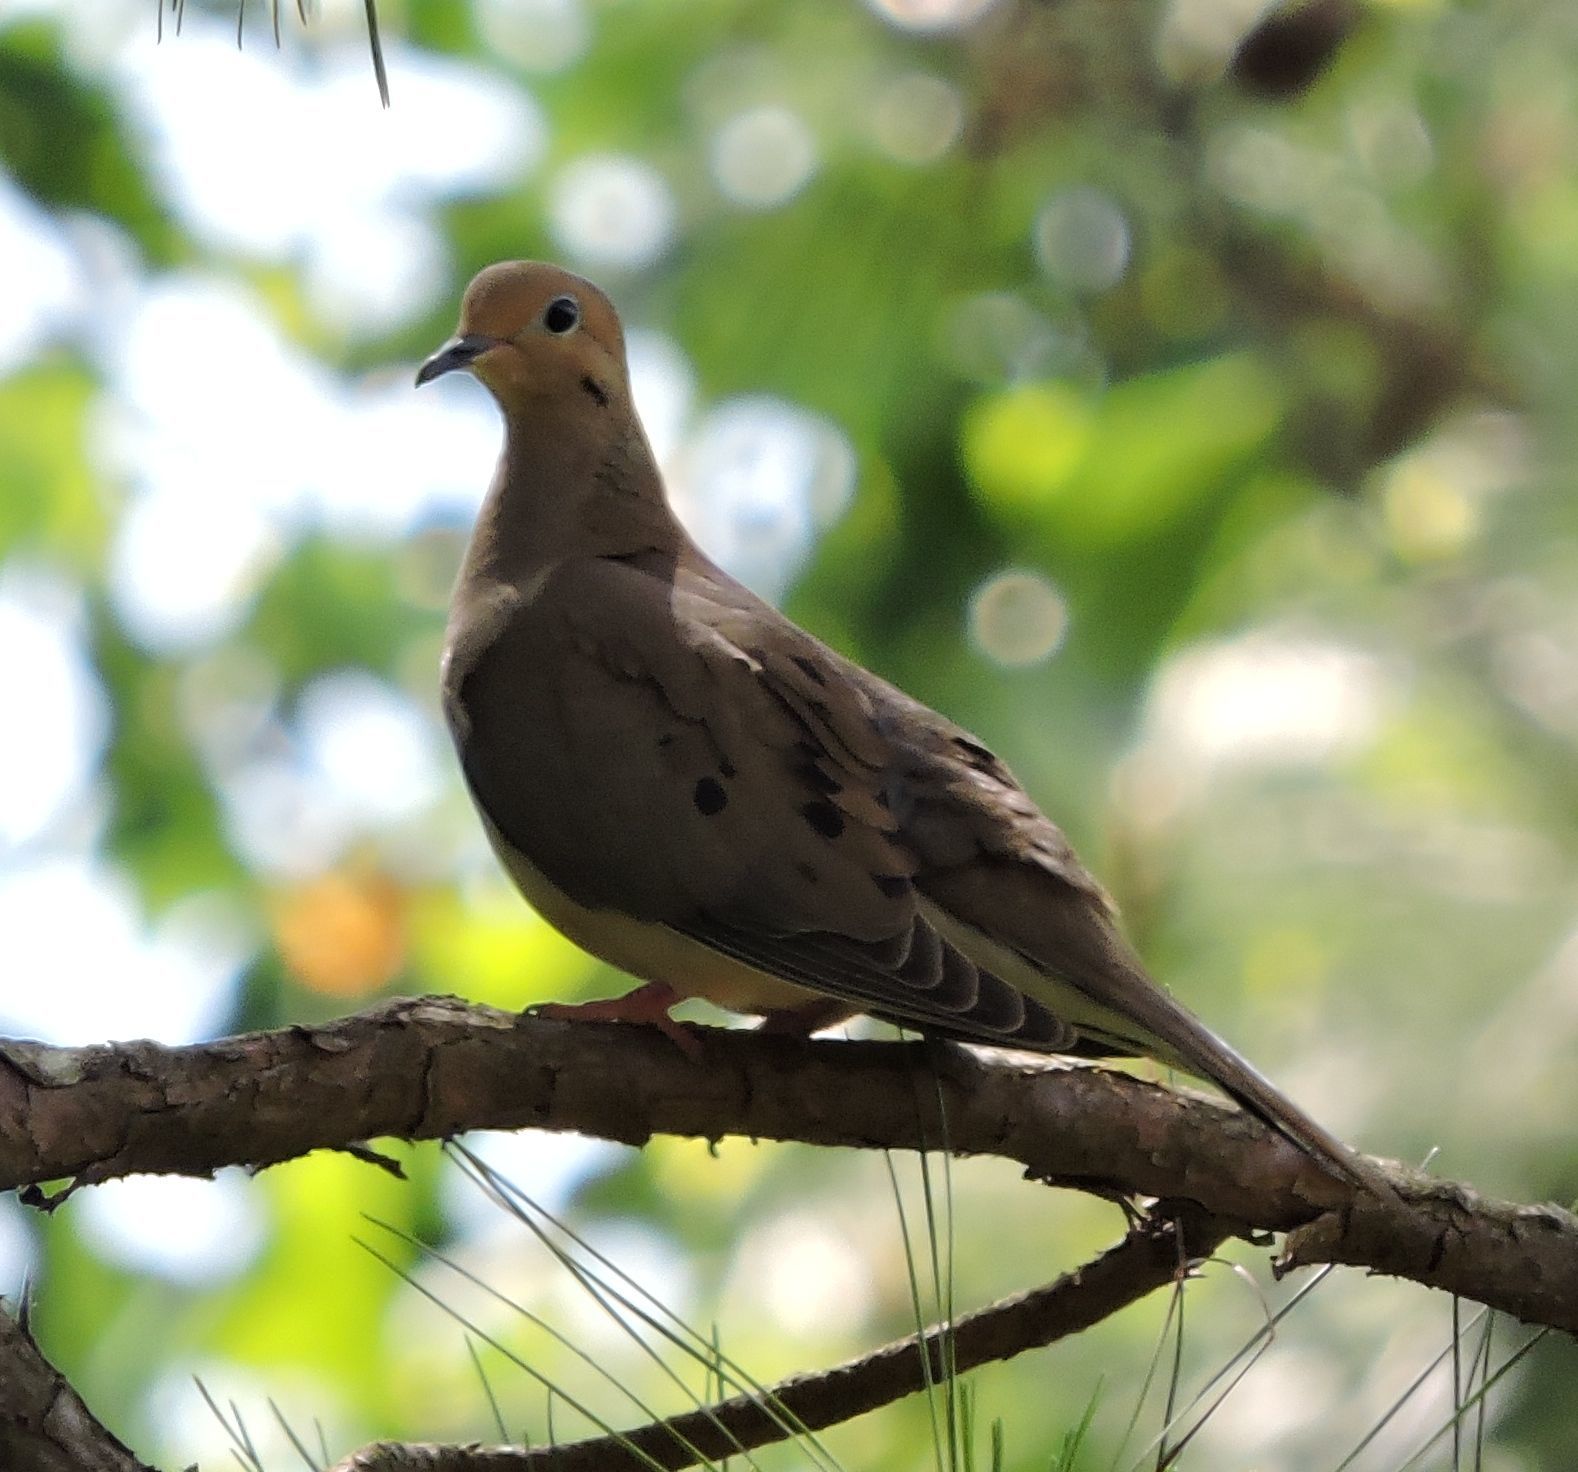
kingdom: Animalia
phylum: Chordata
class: Aves
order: Columbiformes
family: Columbidae
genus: Zenaida
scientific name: Zenaida macroura
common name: Mourning dove
